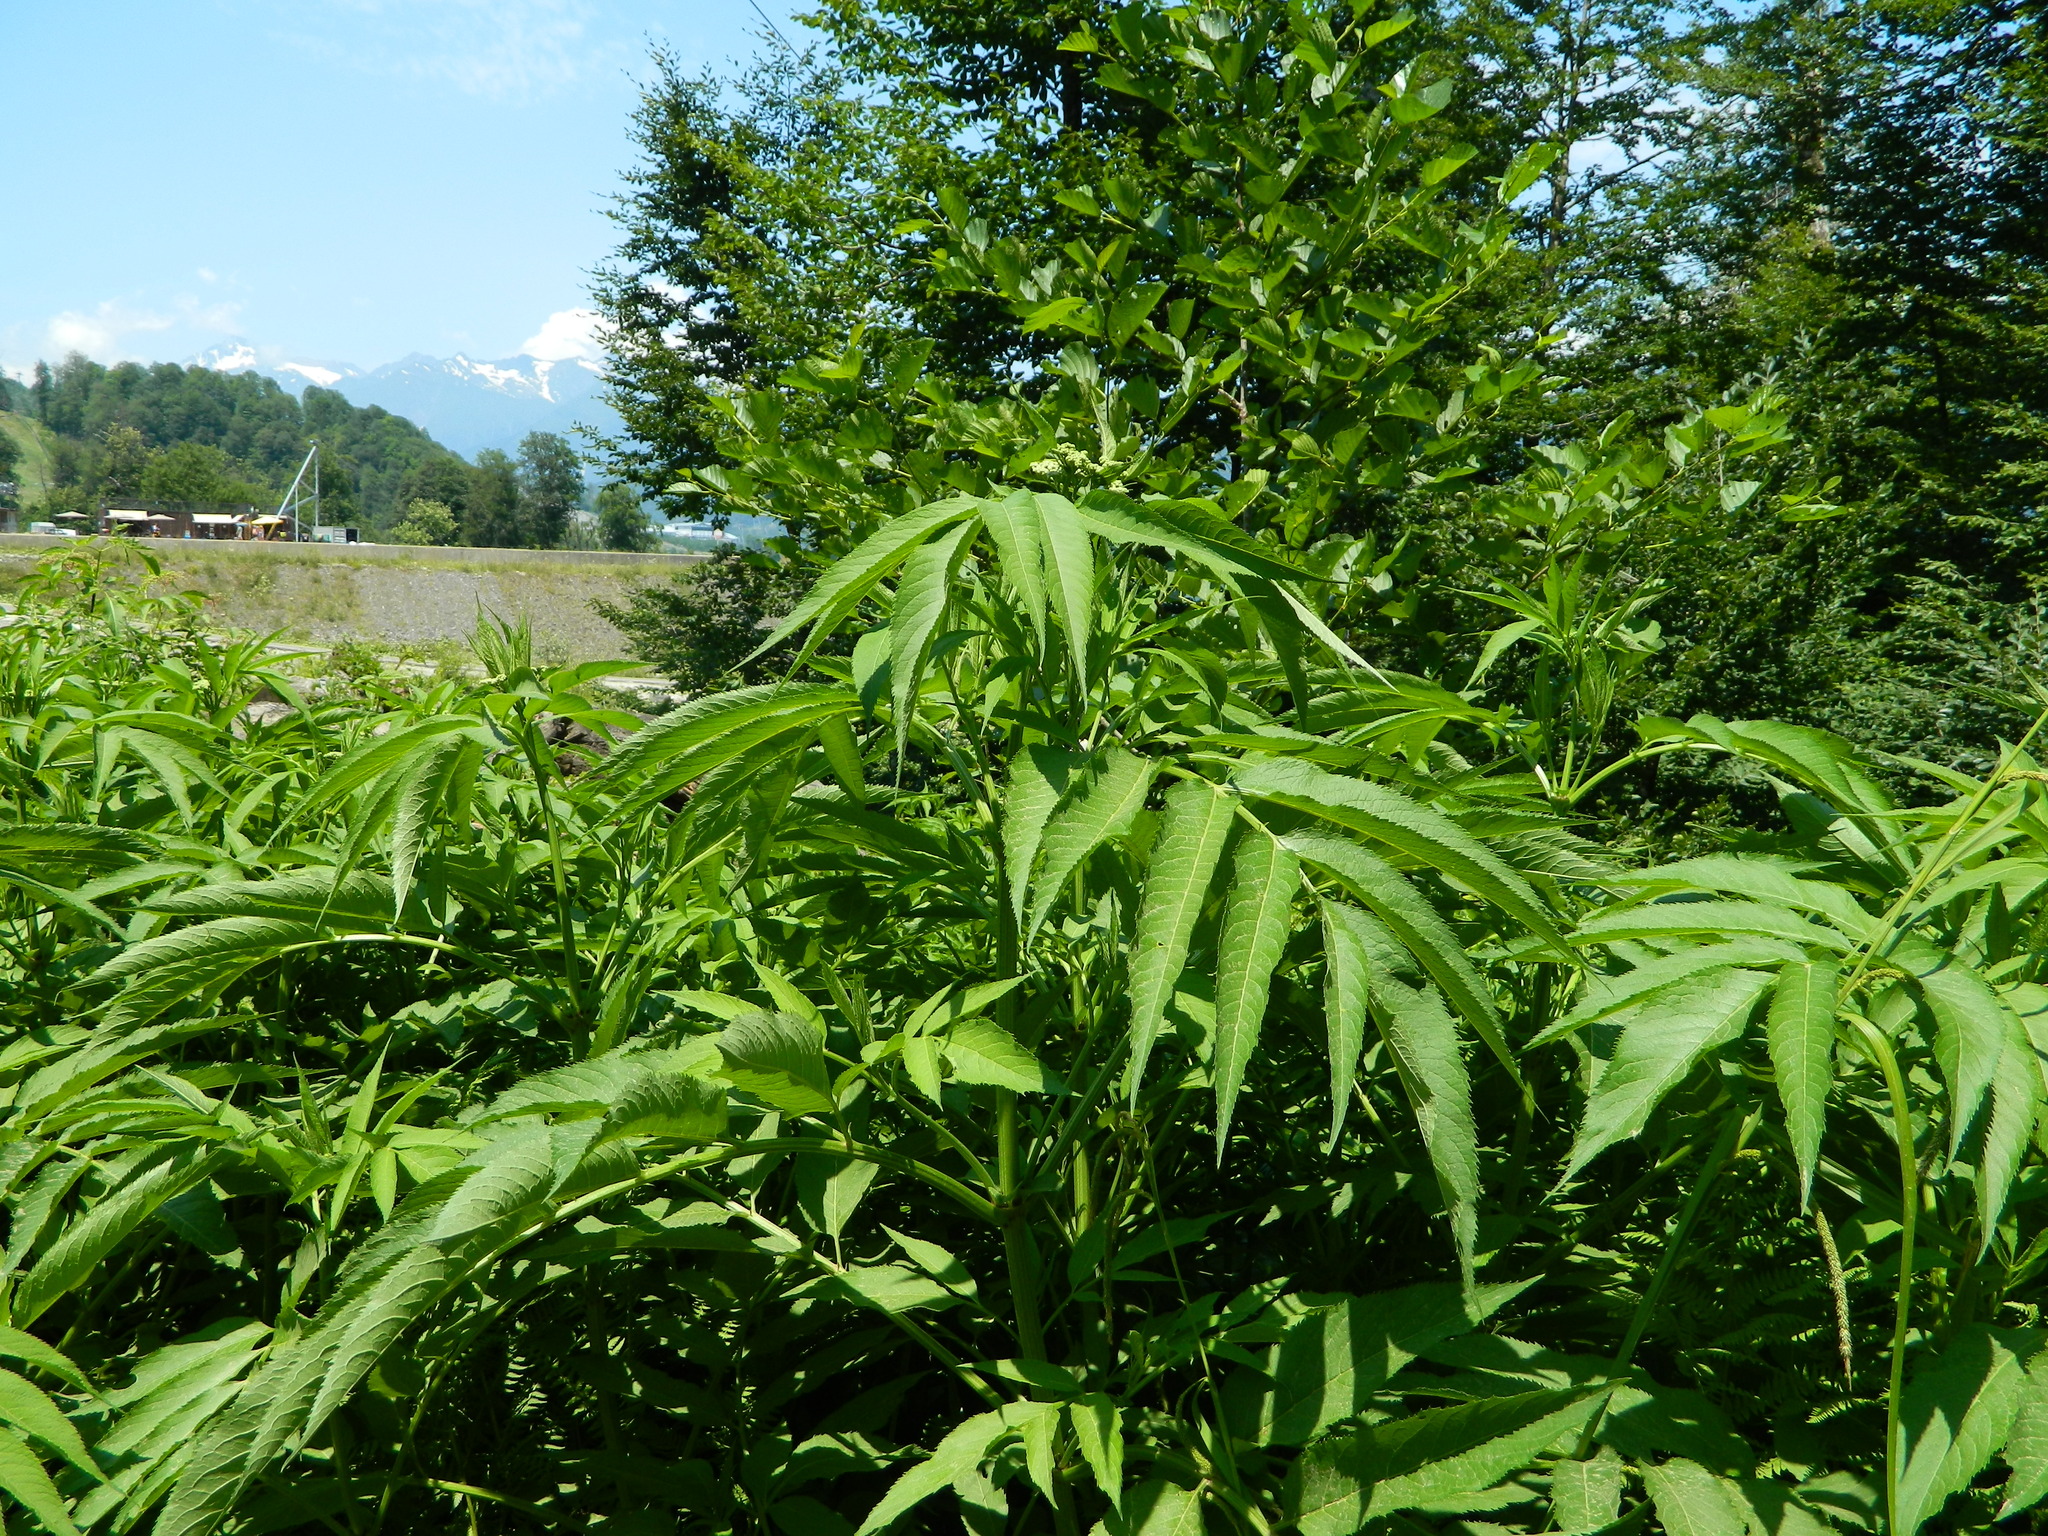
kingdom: Plantae
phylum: Tracheophyta
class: Magnoliopsida
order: Dipsacales
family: Viburnaceae
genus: Sambucus
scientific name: Sambucus ebulus
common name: Dwarf elder
